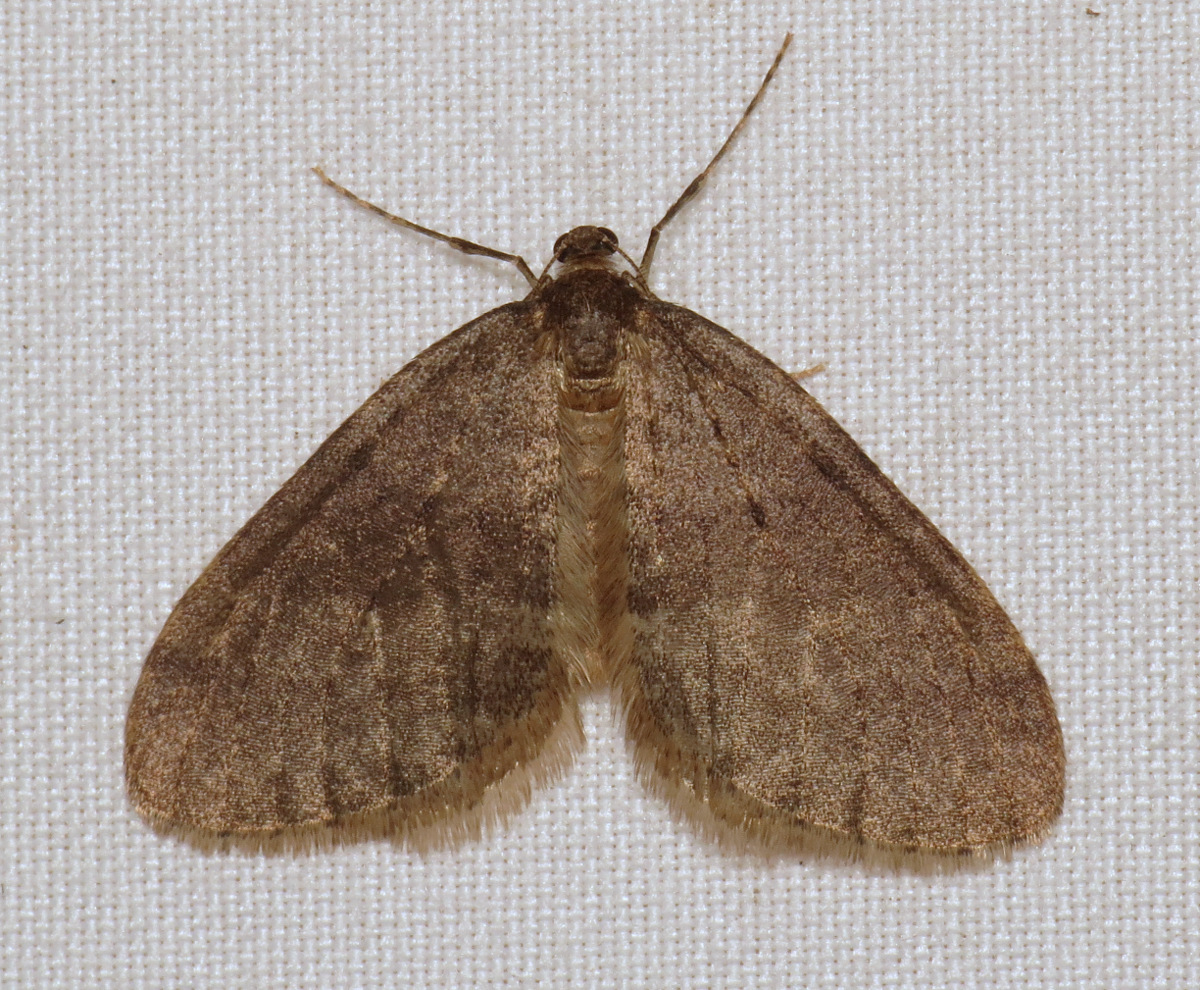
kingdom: Animalia
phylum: Arthropoda
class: Insecta
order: Lepidoptera
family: Geometridae
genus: Operophtera
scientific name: Operophtera brumata
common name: Winter moth
